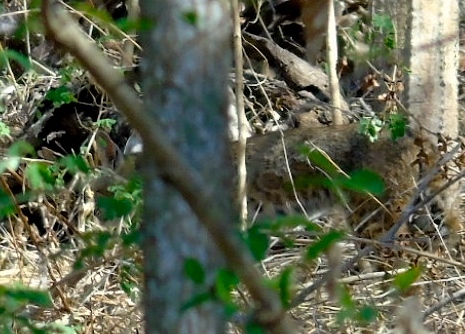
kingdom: Animalia
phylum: Chordata
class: Mammalia
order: Carnivora
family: Felidae
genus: Lynx
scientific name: Lynx rufus
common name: Bobcat
